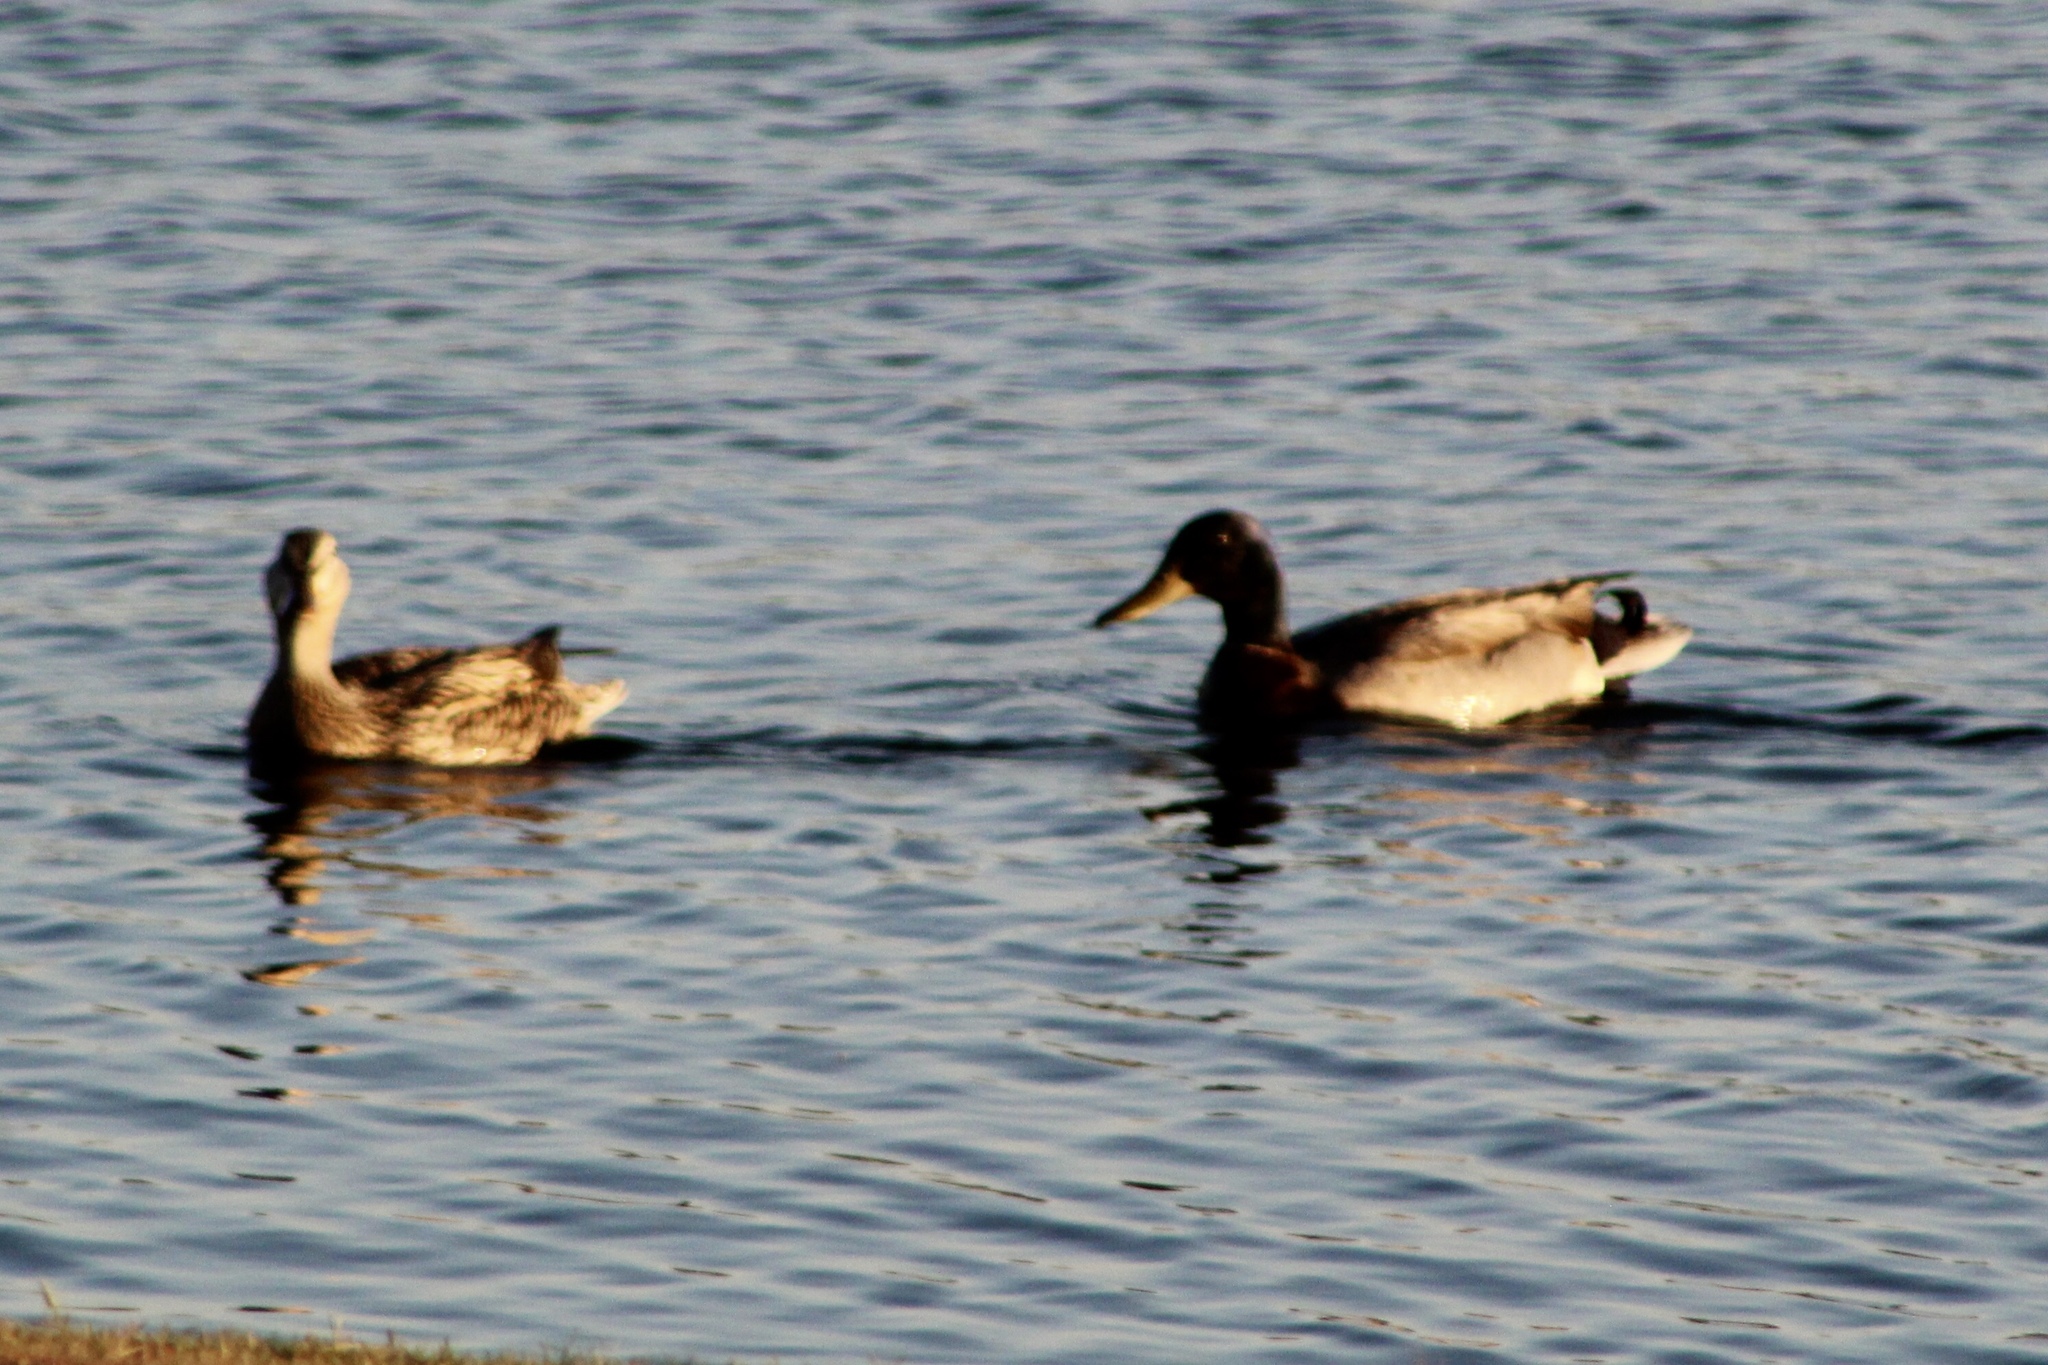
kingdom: Animalia
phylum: Chordata
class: Aves
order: Anseriformes
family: Anatidae
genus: Anas
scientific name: Anas platyrhynchos
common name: Mallard
